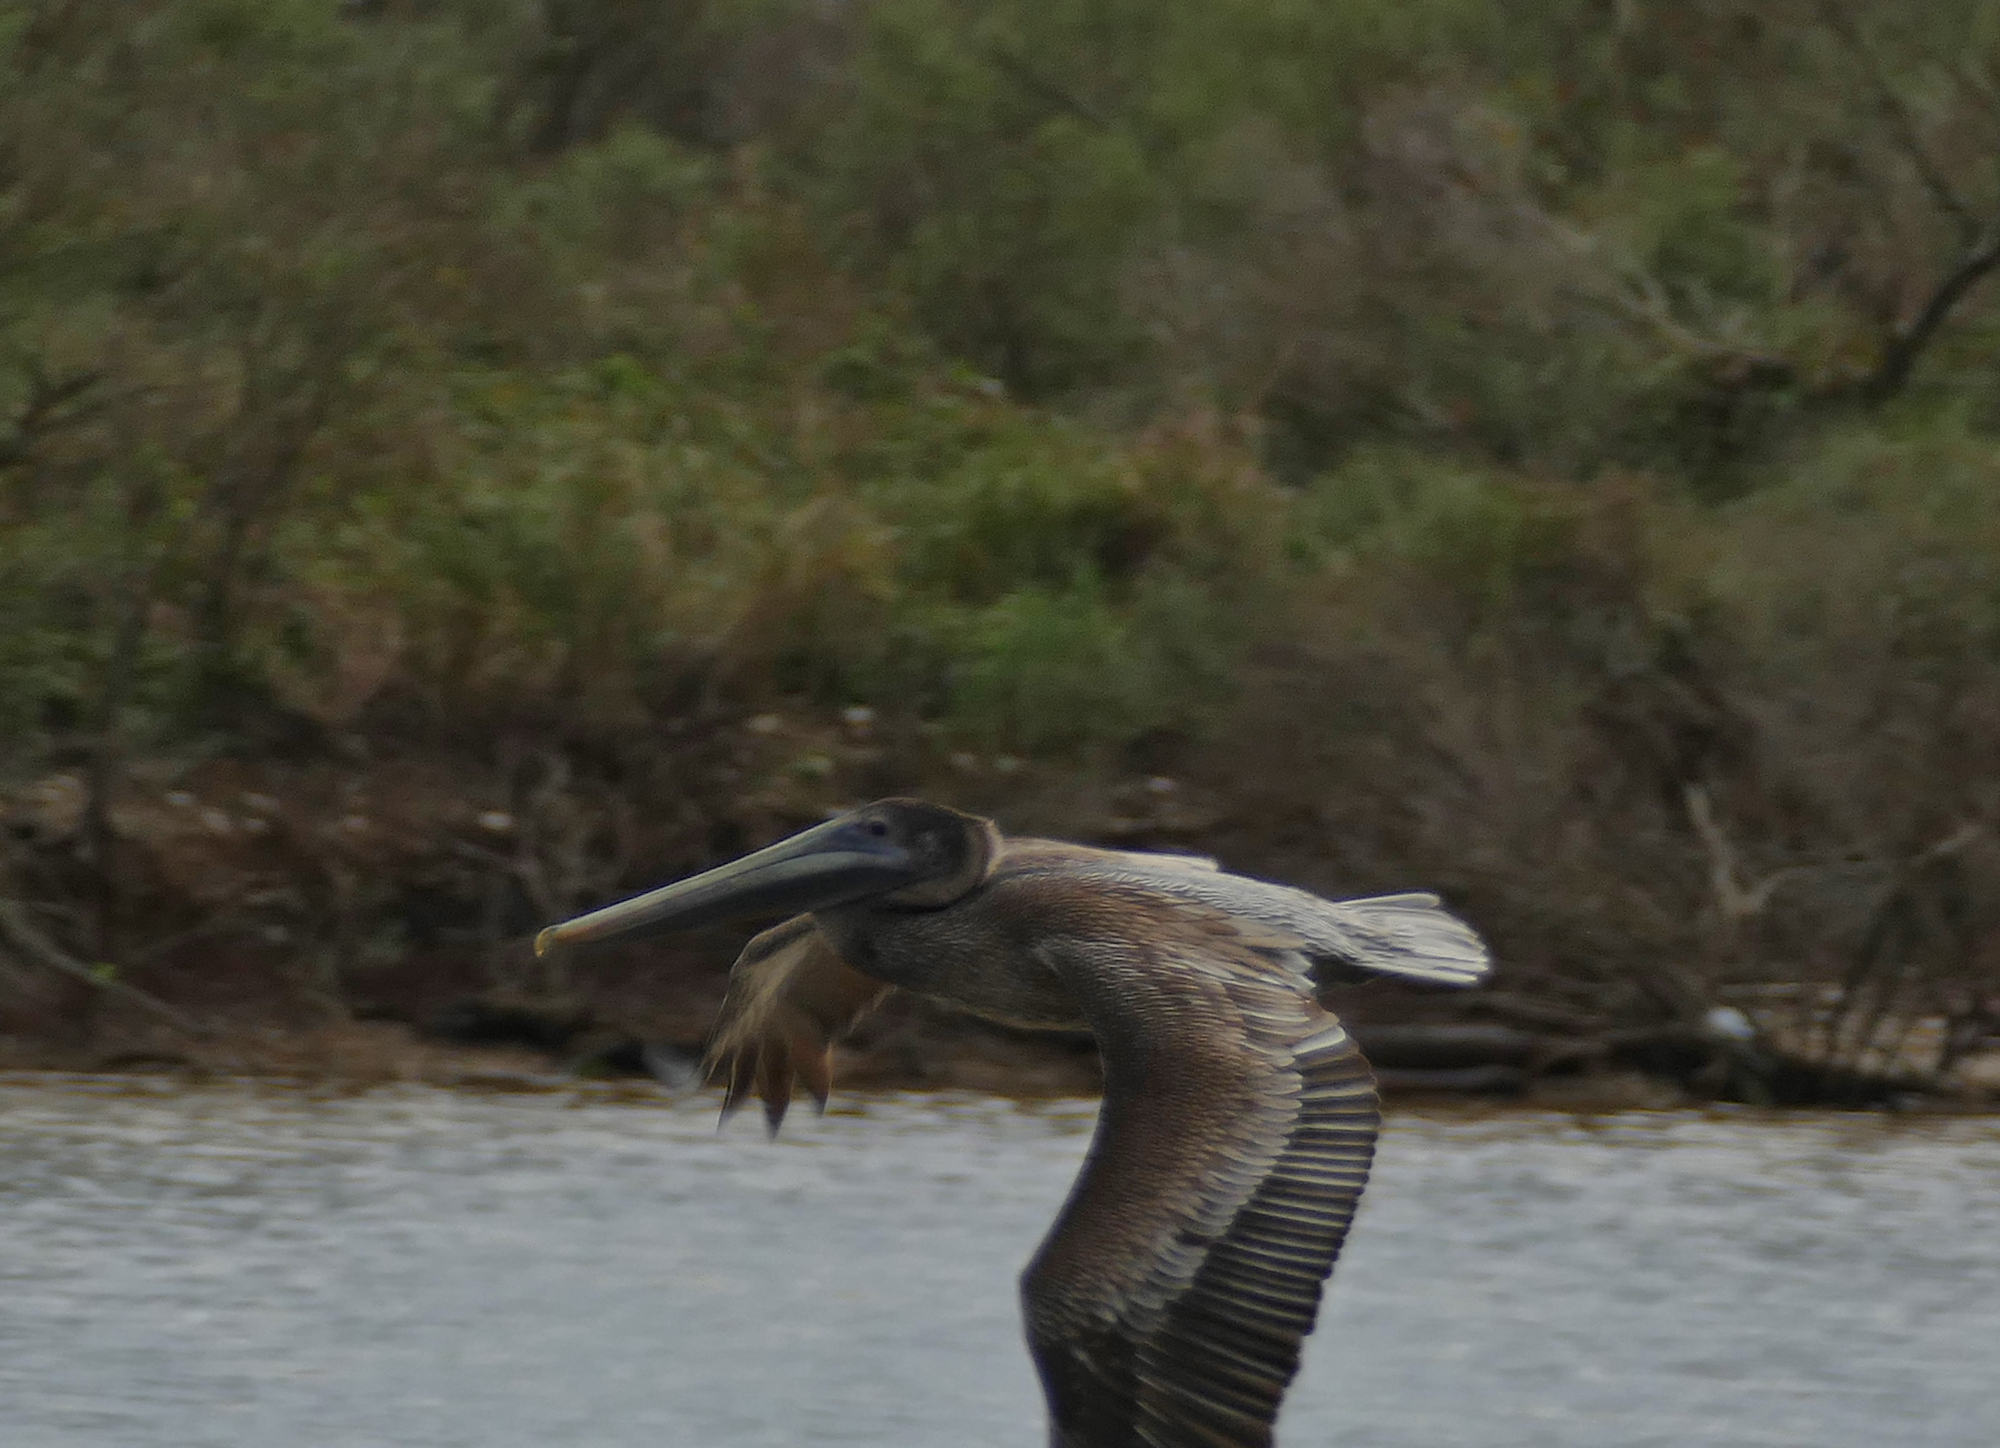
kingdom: Animalia
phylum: Chordata
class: Aves
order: Pelecaniformes
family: Pelecanidae
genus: Pelecanus
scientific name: Pelecanus occidentalis
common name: Brown pelican
